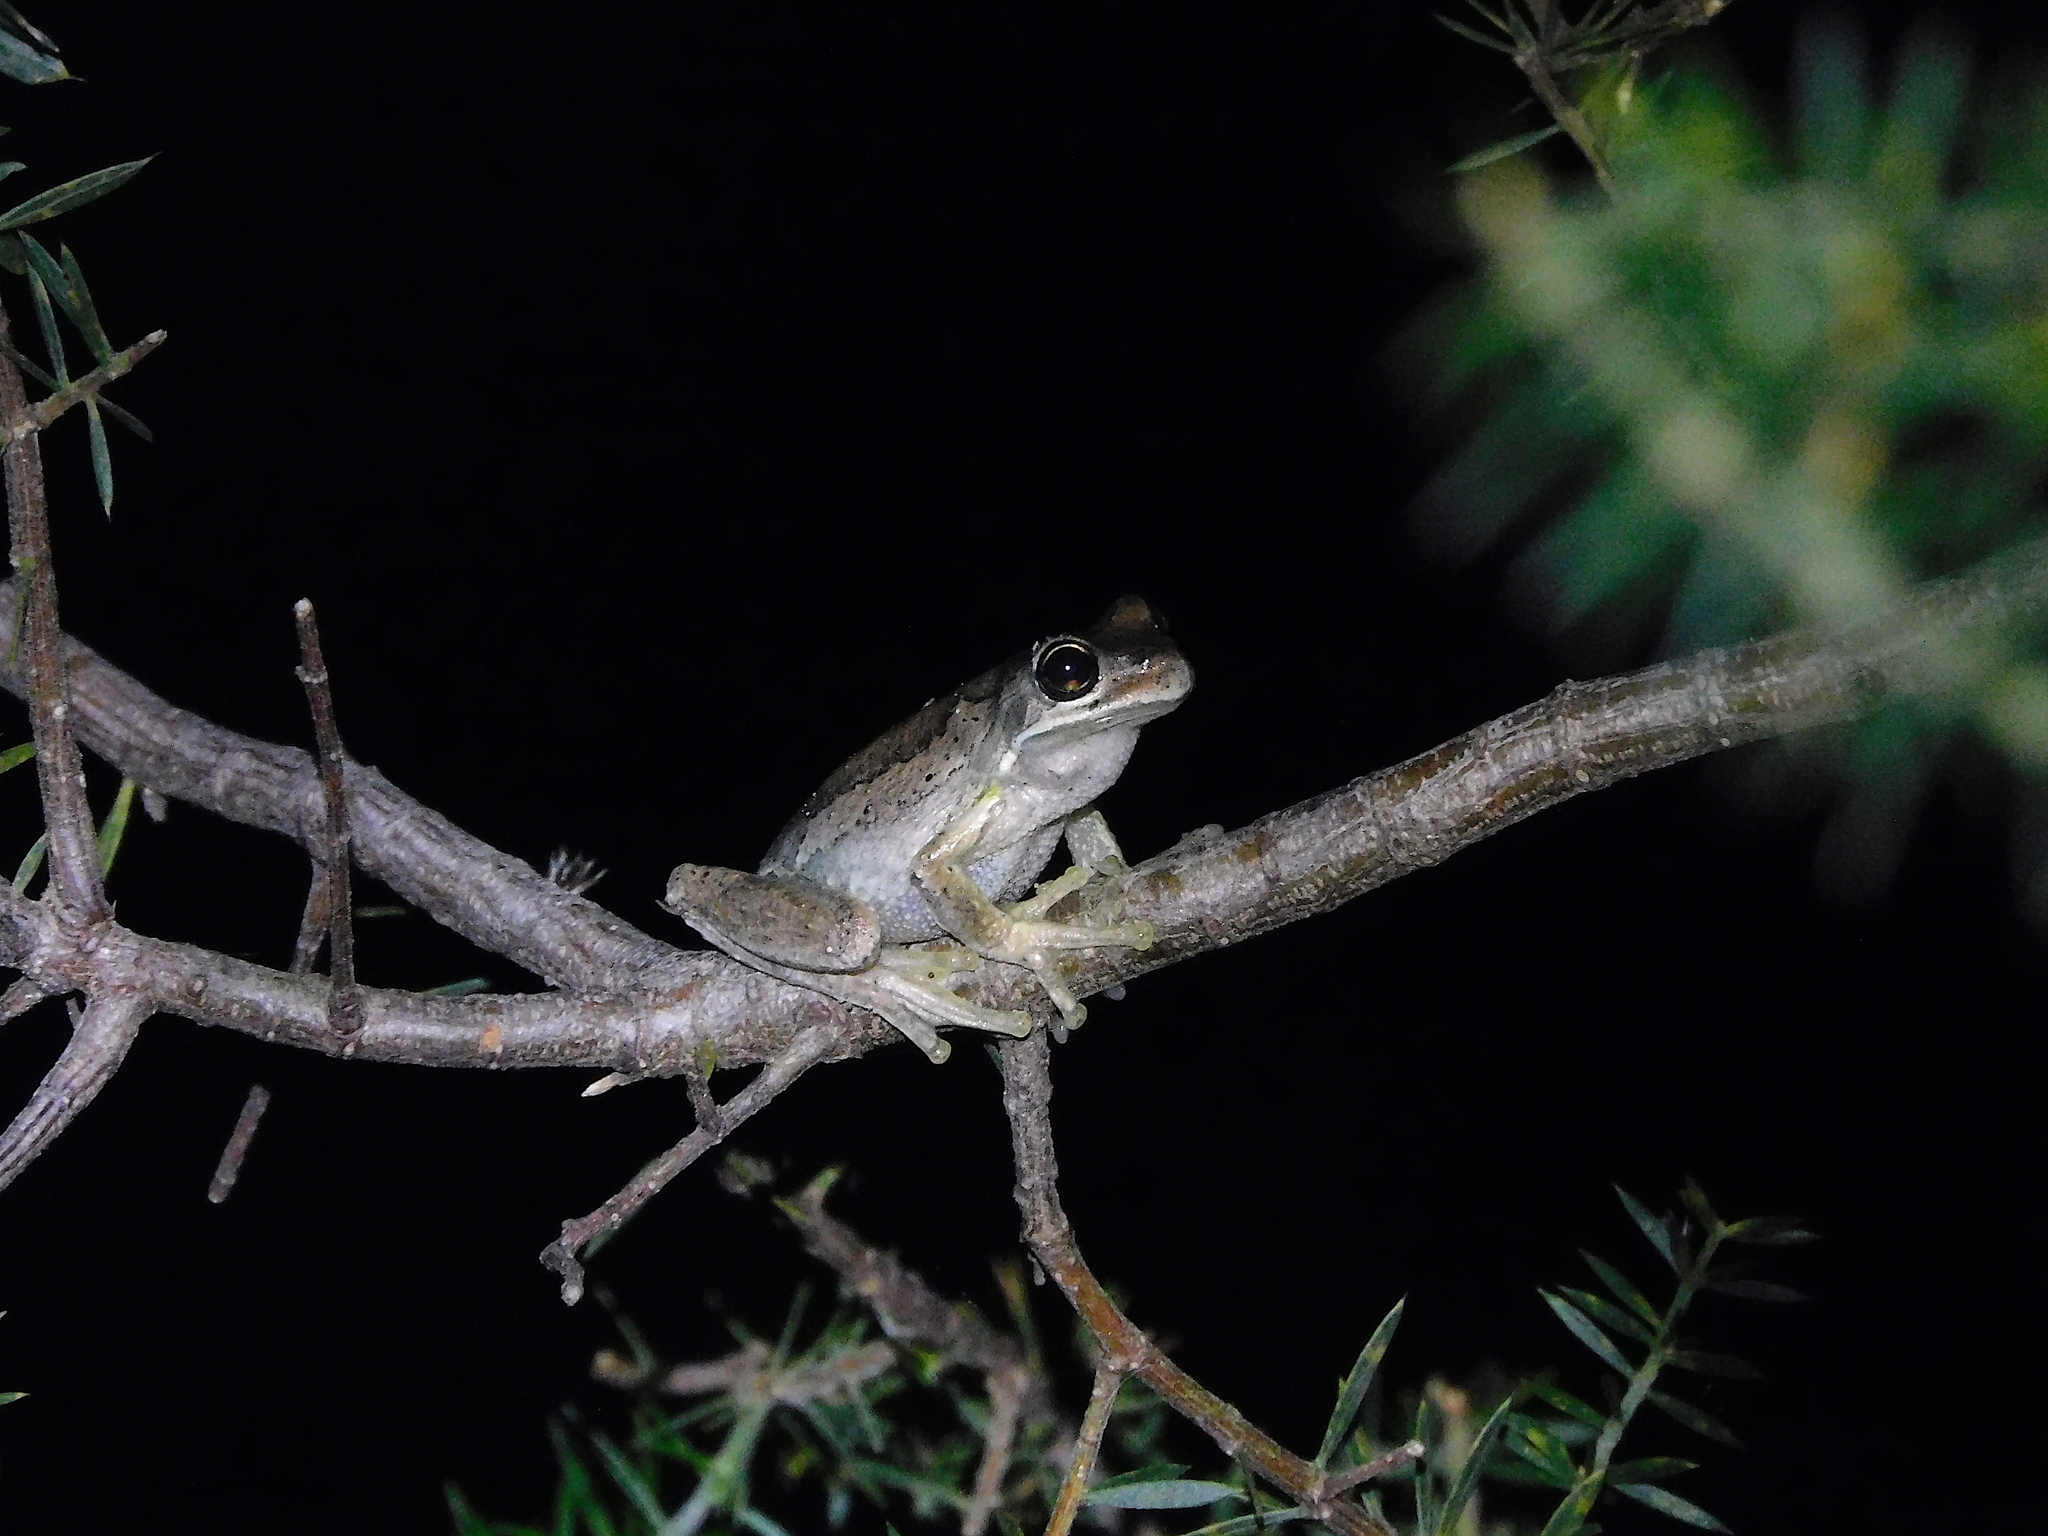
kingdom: Animalia
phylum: Chordata
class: Amphibia
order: Anura
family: Pelodryadidae
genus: Litoria
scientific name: Litoria ewingii
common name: Southern brown tree frog
